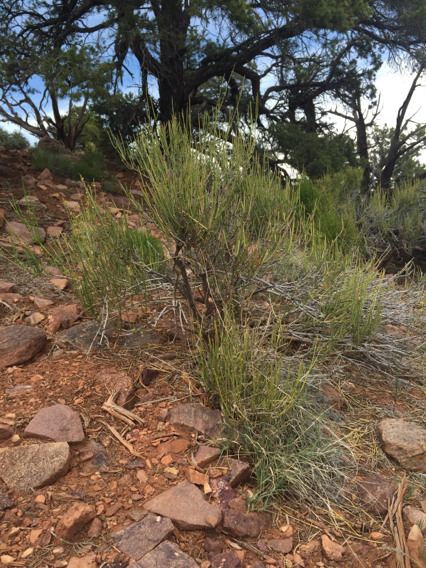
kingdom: Plantae
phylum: Tracheophyta
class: Gnetopsida
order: Ephedrales
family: Ephedraceae
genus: Ephedra
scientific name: Ephedra viridis
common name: Green ephedra
